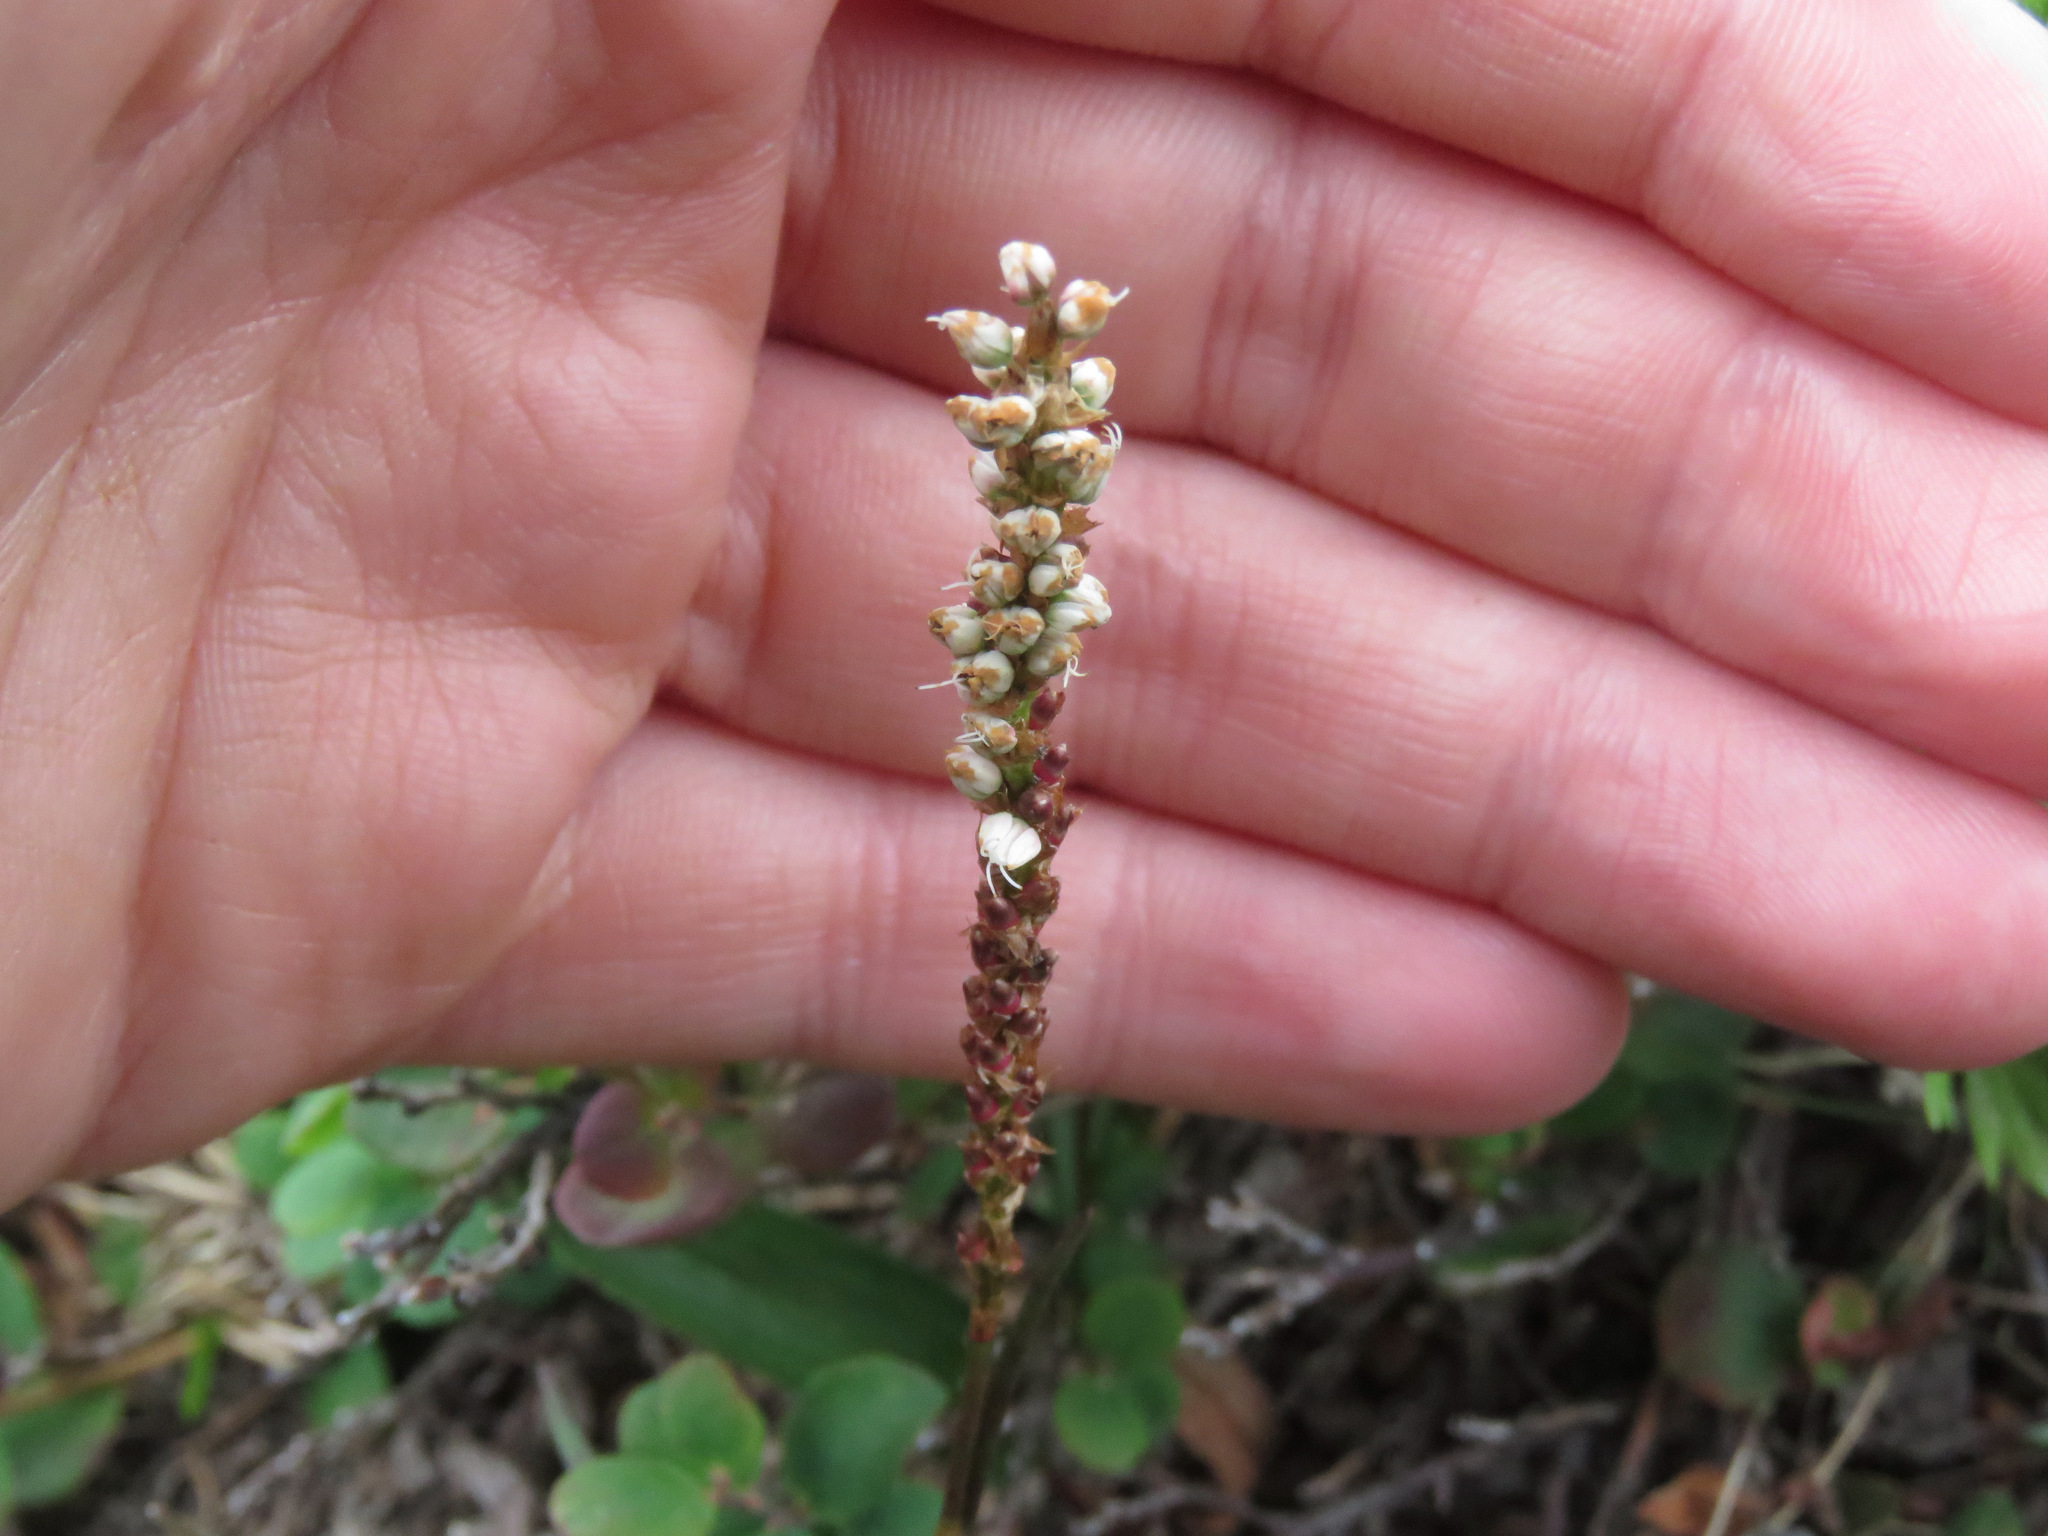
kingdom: Plantae
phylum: Tracheophyta
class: Magnoliopsida
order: Caryophyllales
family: Polygonaceae
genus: Bistorta
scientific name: Bistorta vivipara
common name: Alpine bistort
